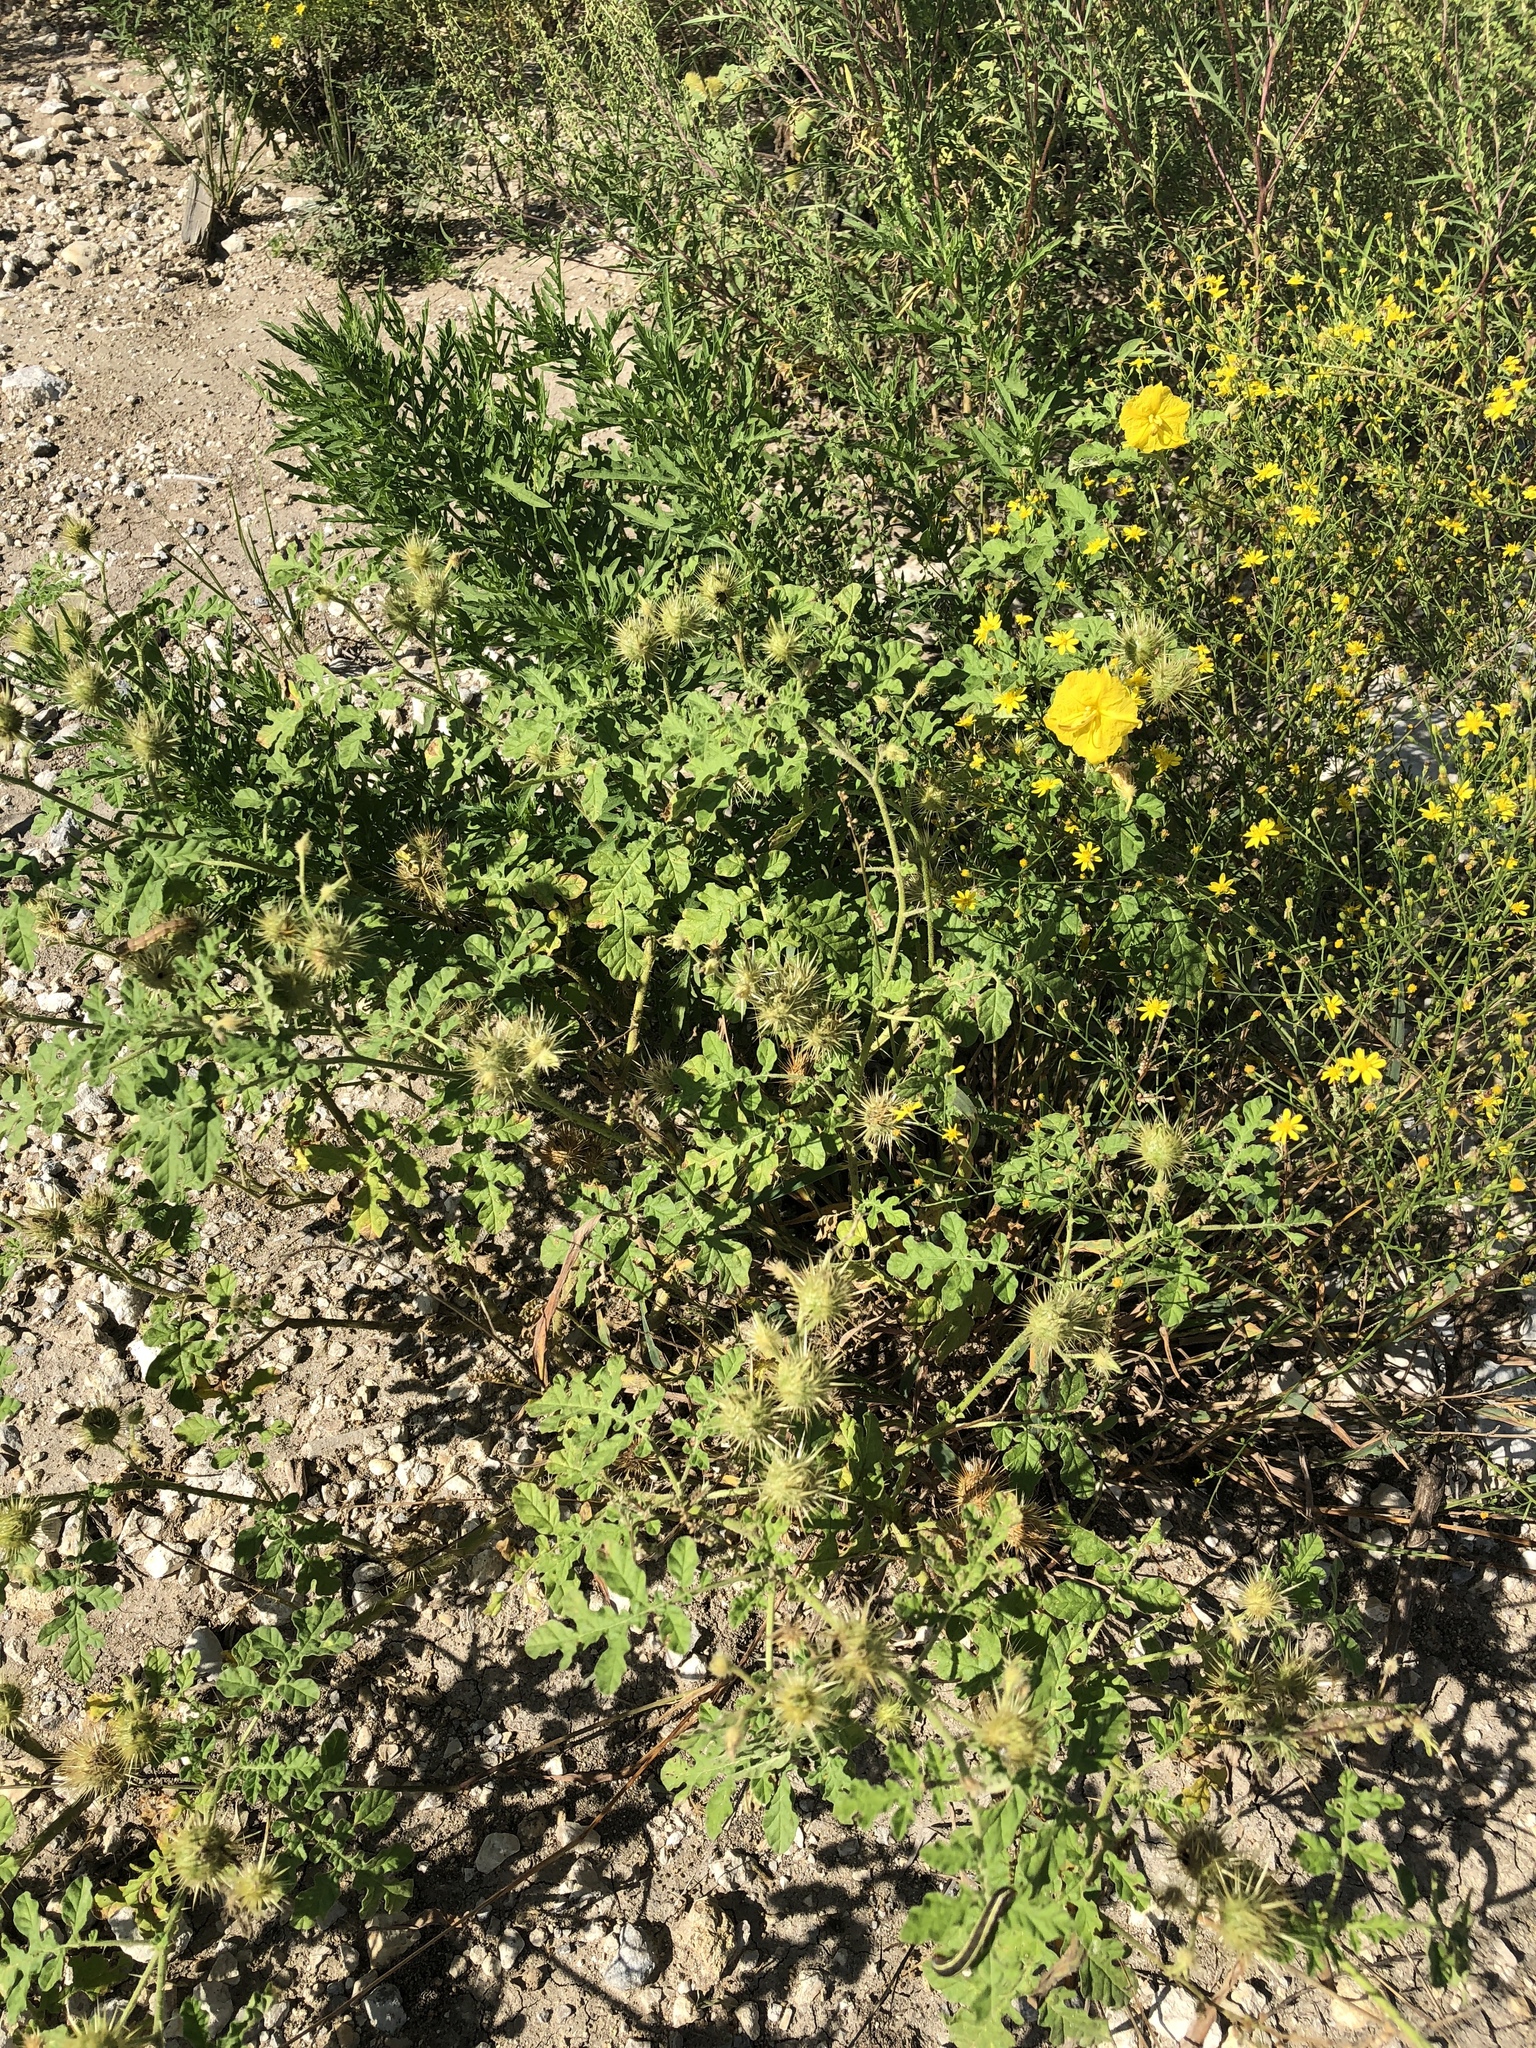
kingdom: Plantae
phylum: Tracheophyta
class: Magnoliopsida
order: Solanales
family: Solanaceae
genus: Solanum
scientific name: Solanum angustifolium
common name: Buffalobur nightshade
